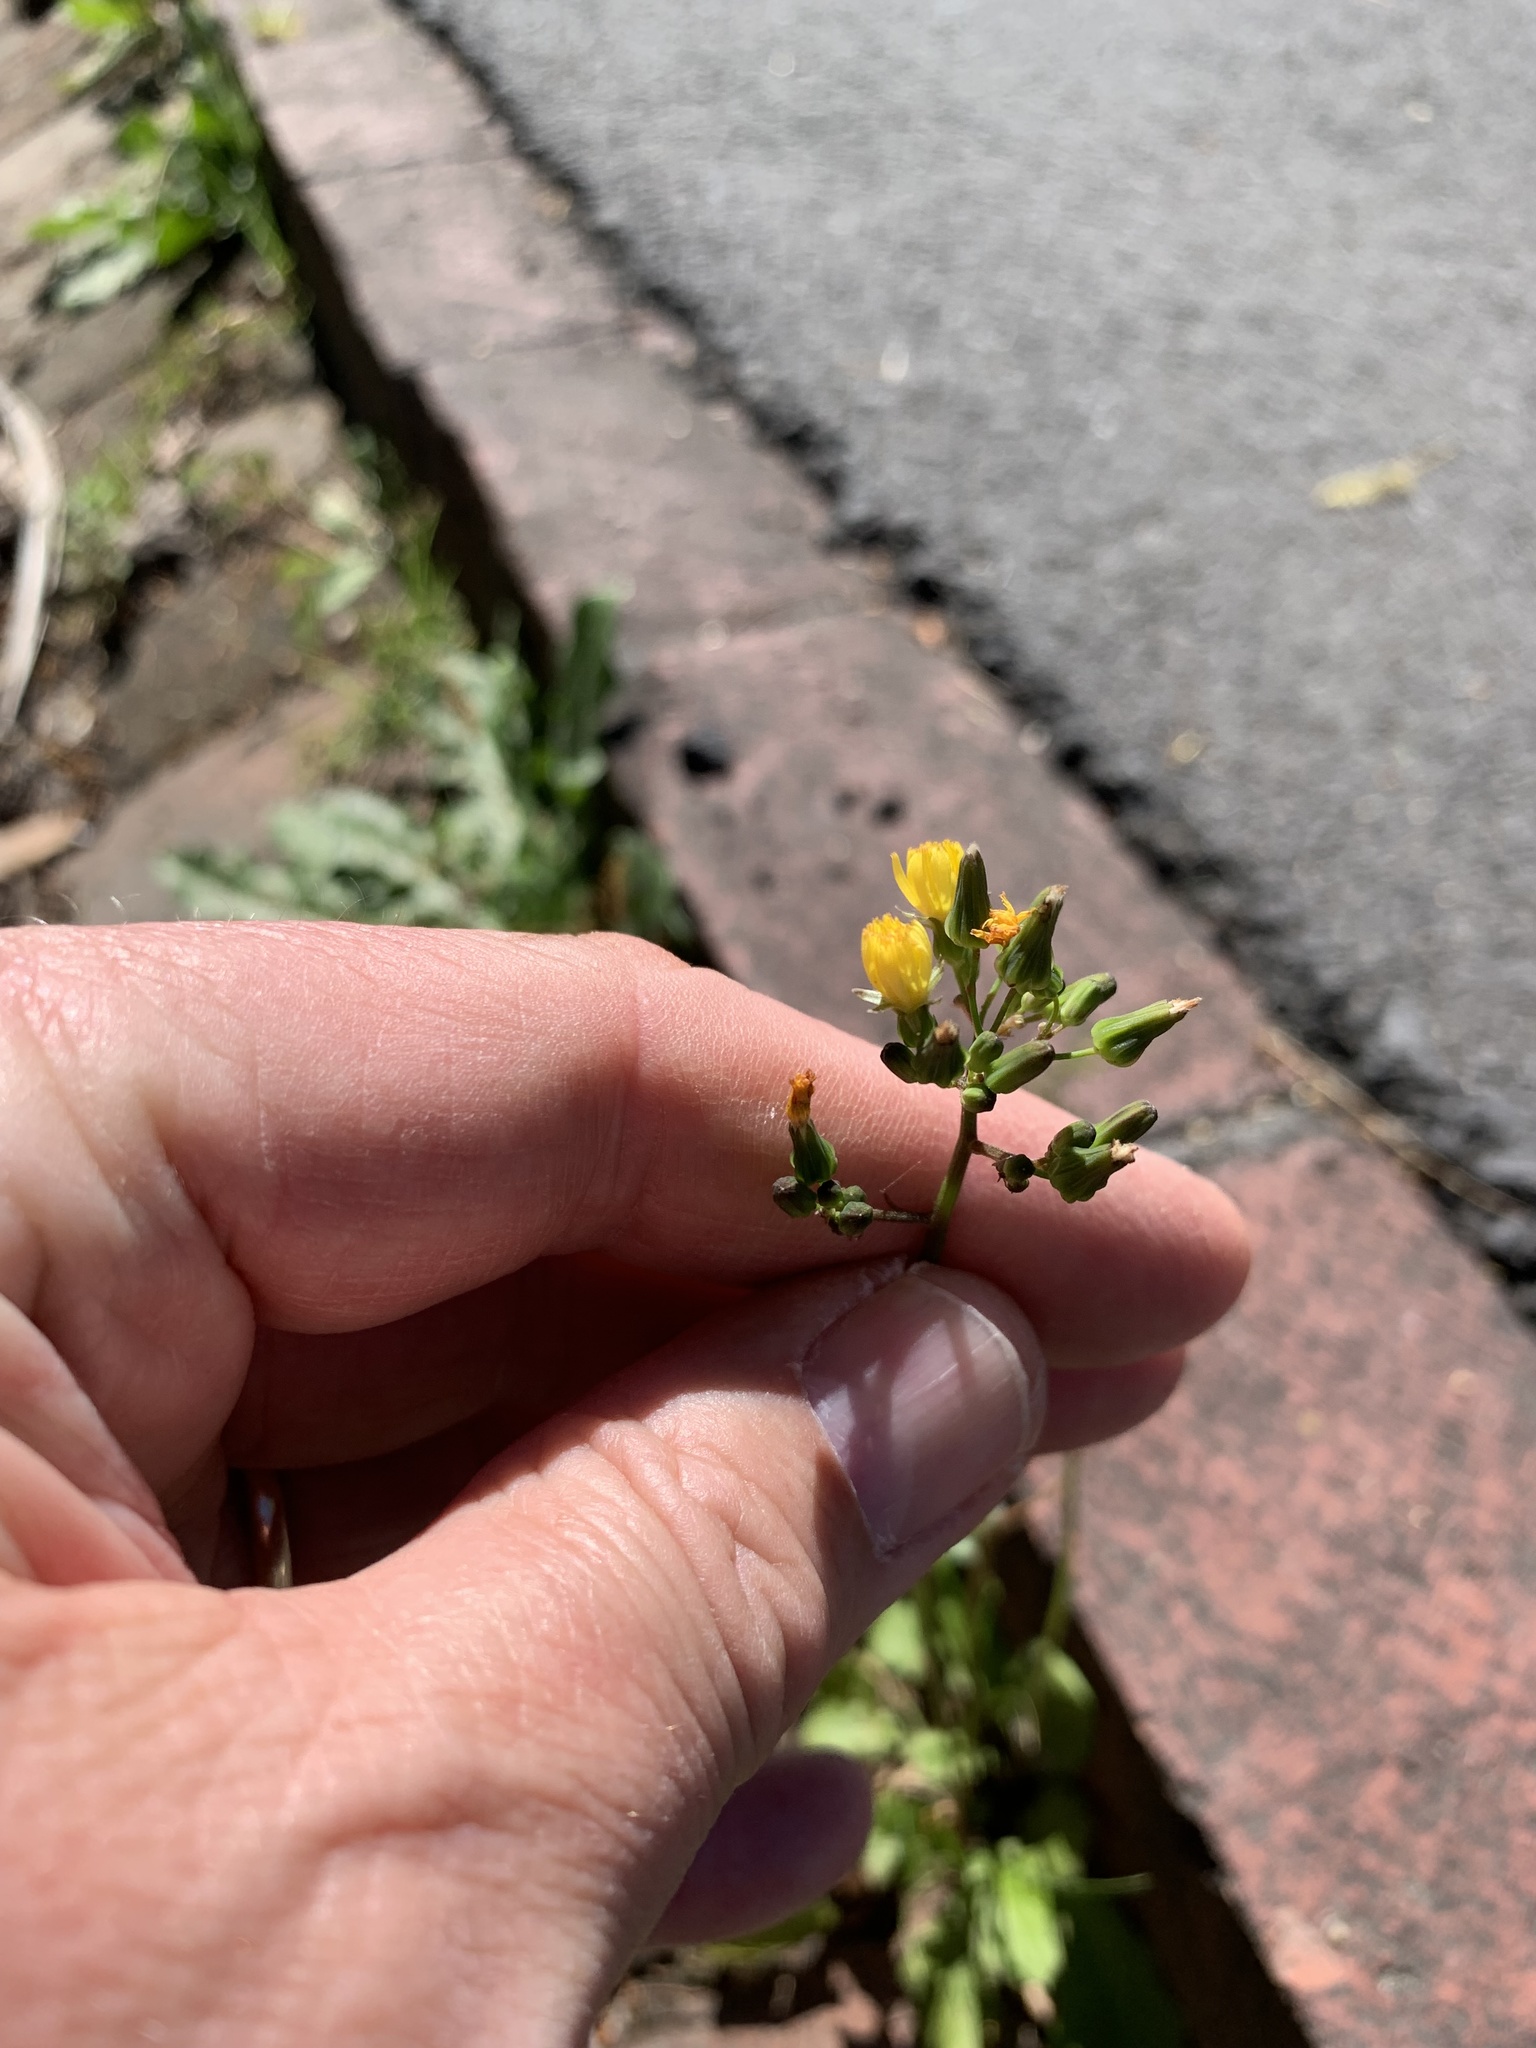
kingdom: Plantae
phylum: Tracheophyta
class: Magnoliopsida
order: Asterales
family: Asteraceae
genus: Youngia
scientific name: Youngia japonica
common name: Oriental false hawksbeard
